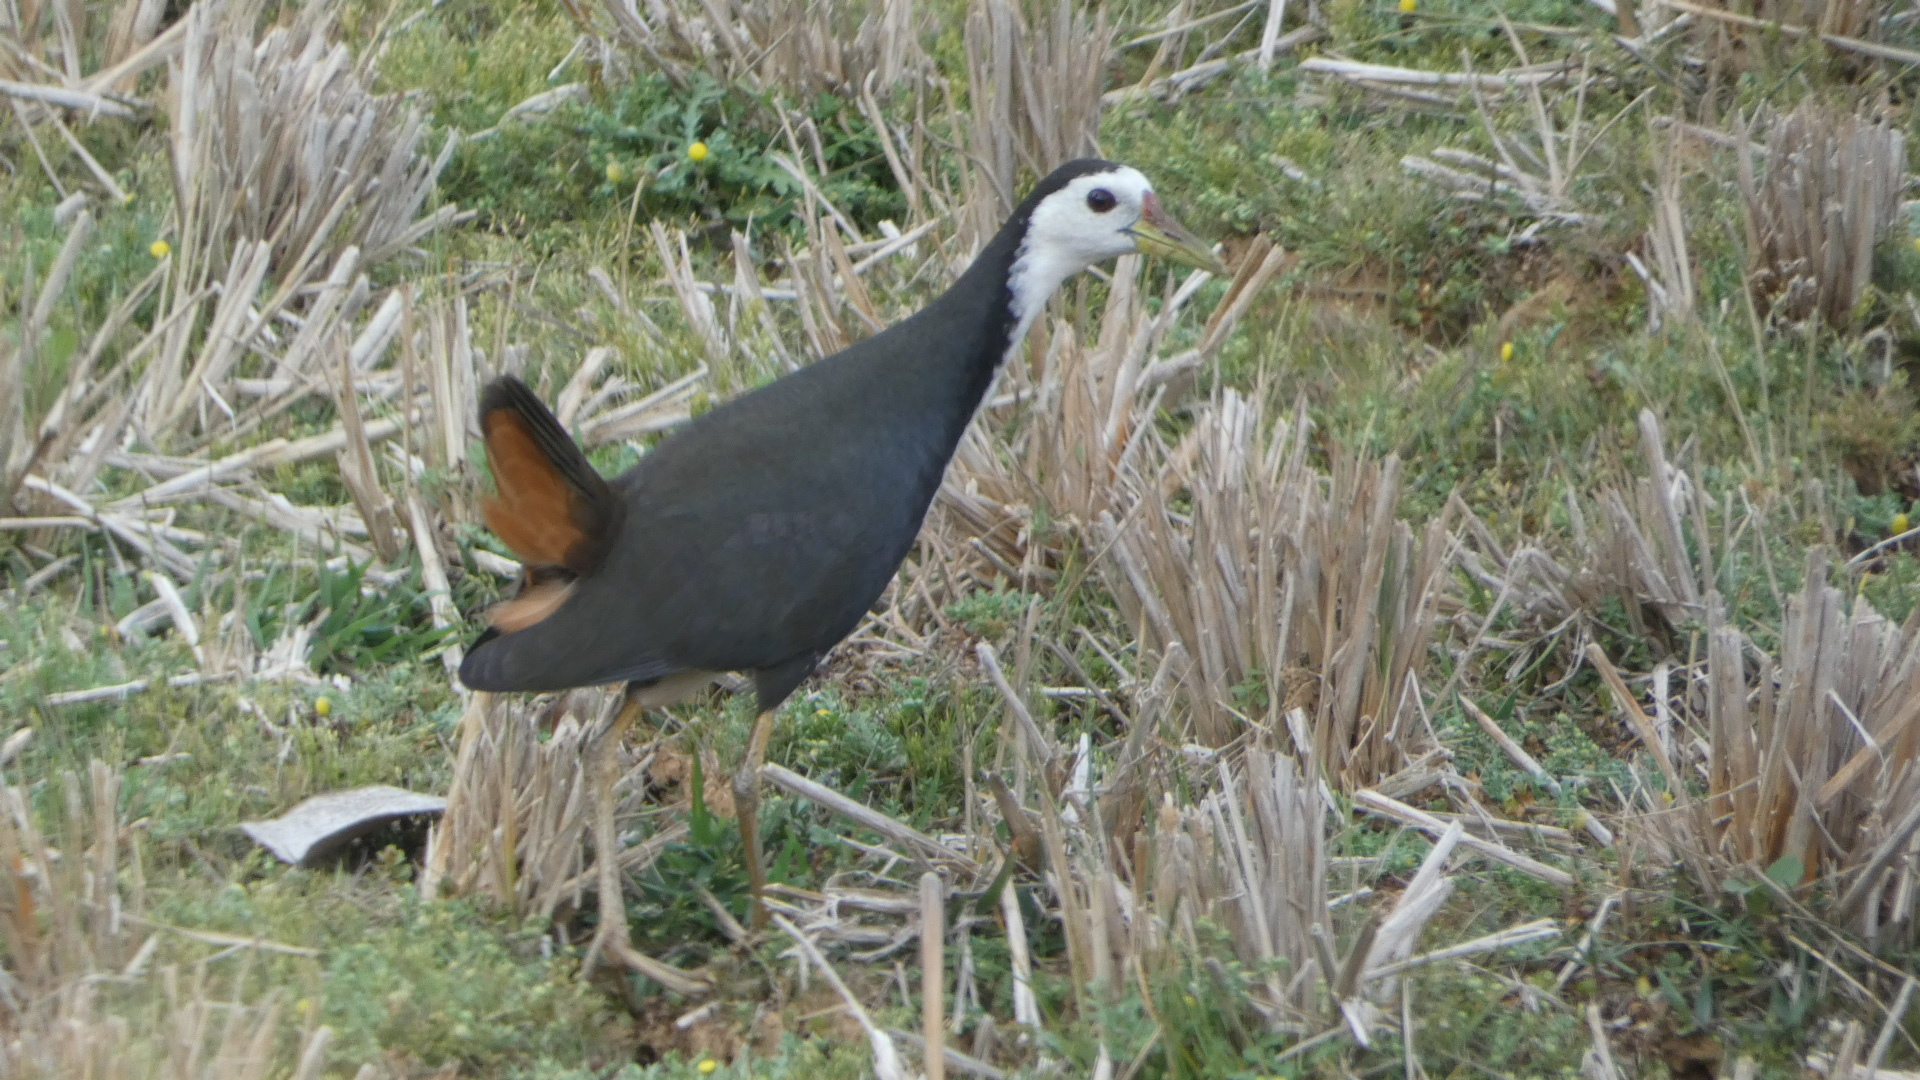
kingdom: Animalia
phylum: Chordata
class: Aves
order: Gruiformes
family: Rallidae
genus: Amaurornis
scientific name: Amaurornis phoenicurus
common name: White-breasted waterhen
